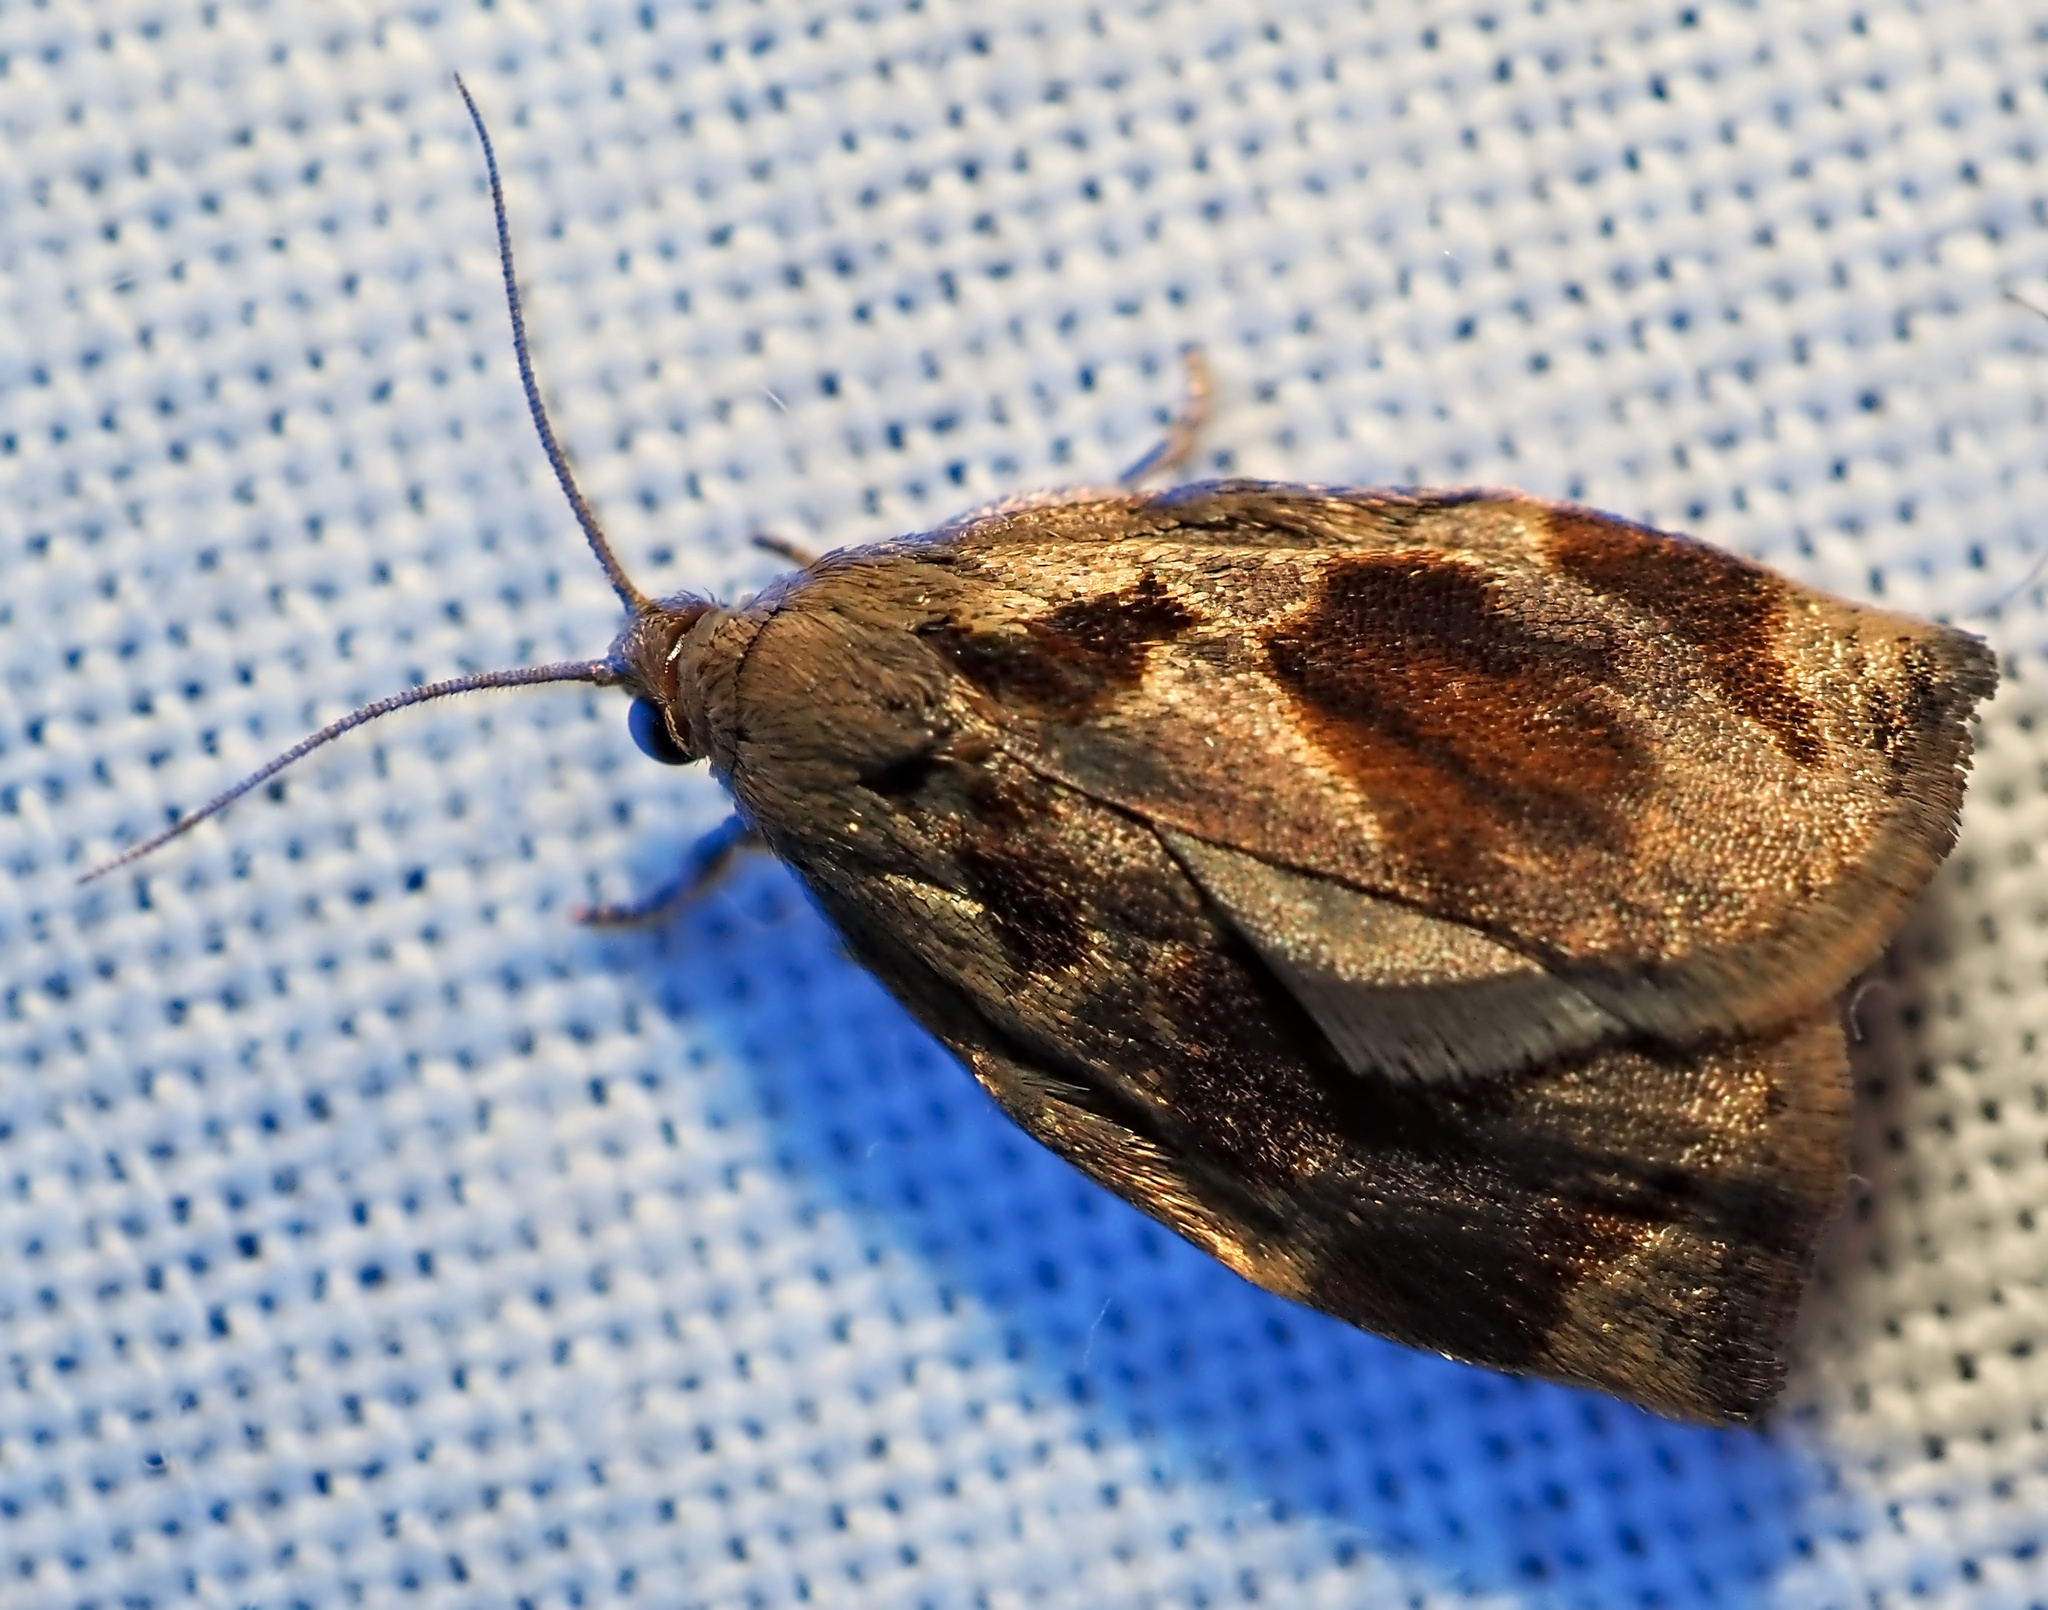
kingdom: Animalia
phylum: Arthropoda
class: Insecta
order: Lepidoptera
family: Tortricidae
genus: Archips
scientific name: Archips crataegana
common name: Brown oak tortrix
